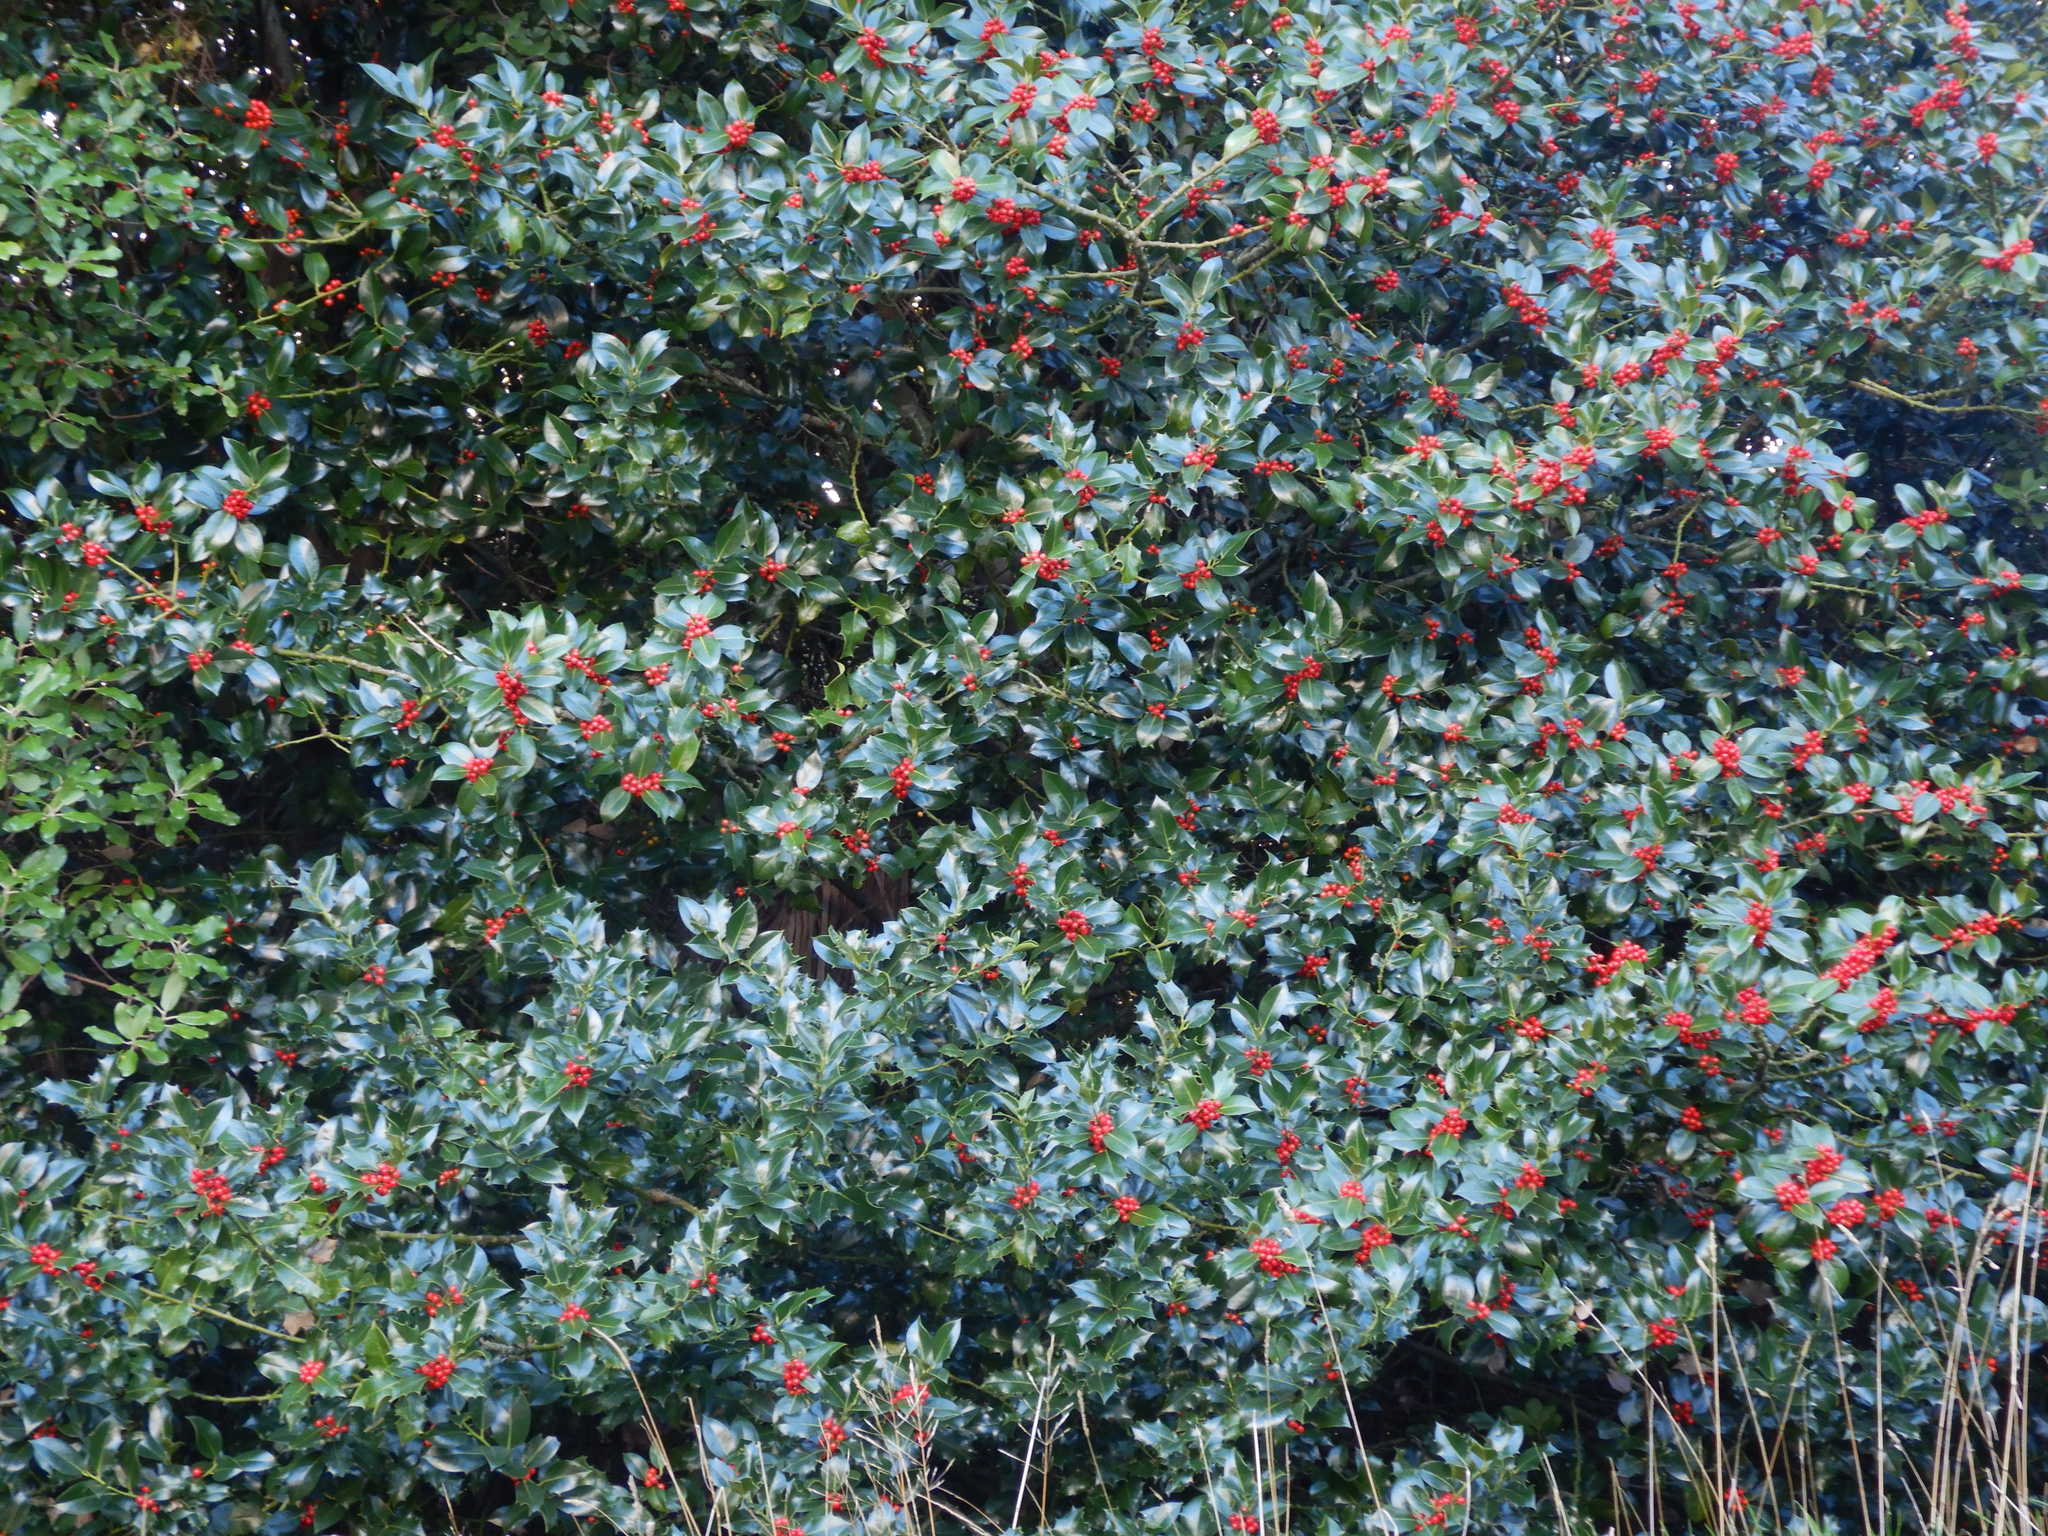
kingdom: Plantae
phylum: Tracheophyta
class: Magnoliopsida
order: Aquifoliales
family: Aquifoliaceae
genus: Ilex
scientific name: Ilex aquifolium
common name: English holly
